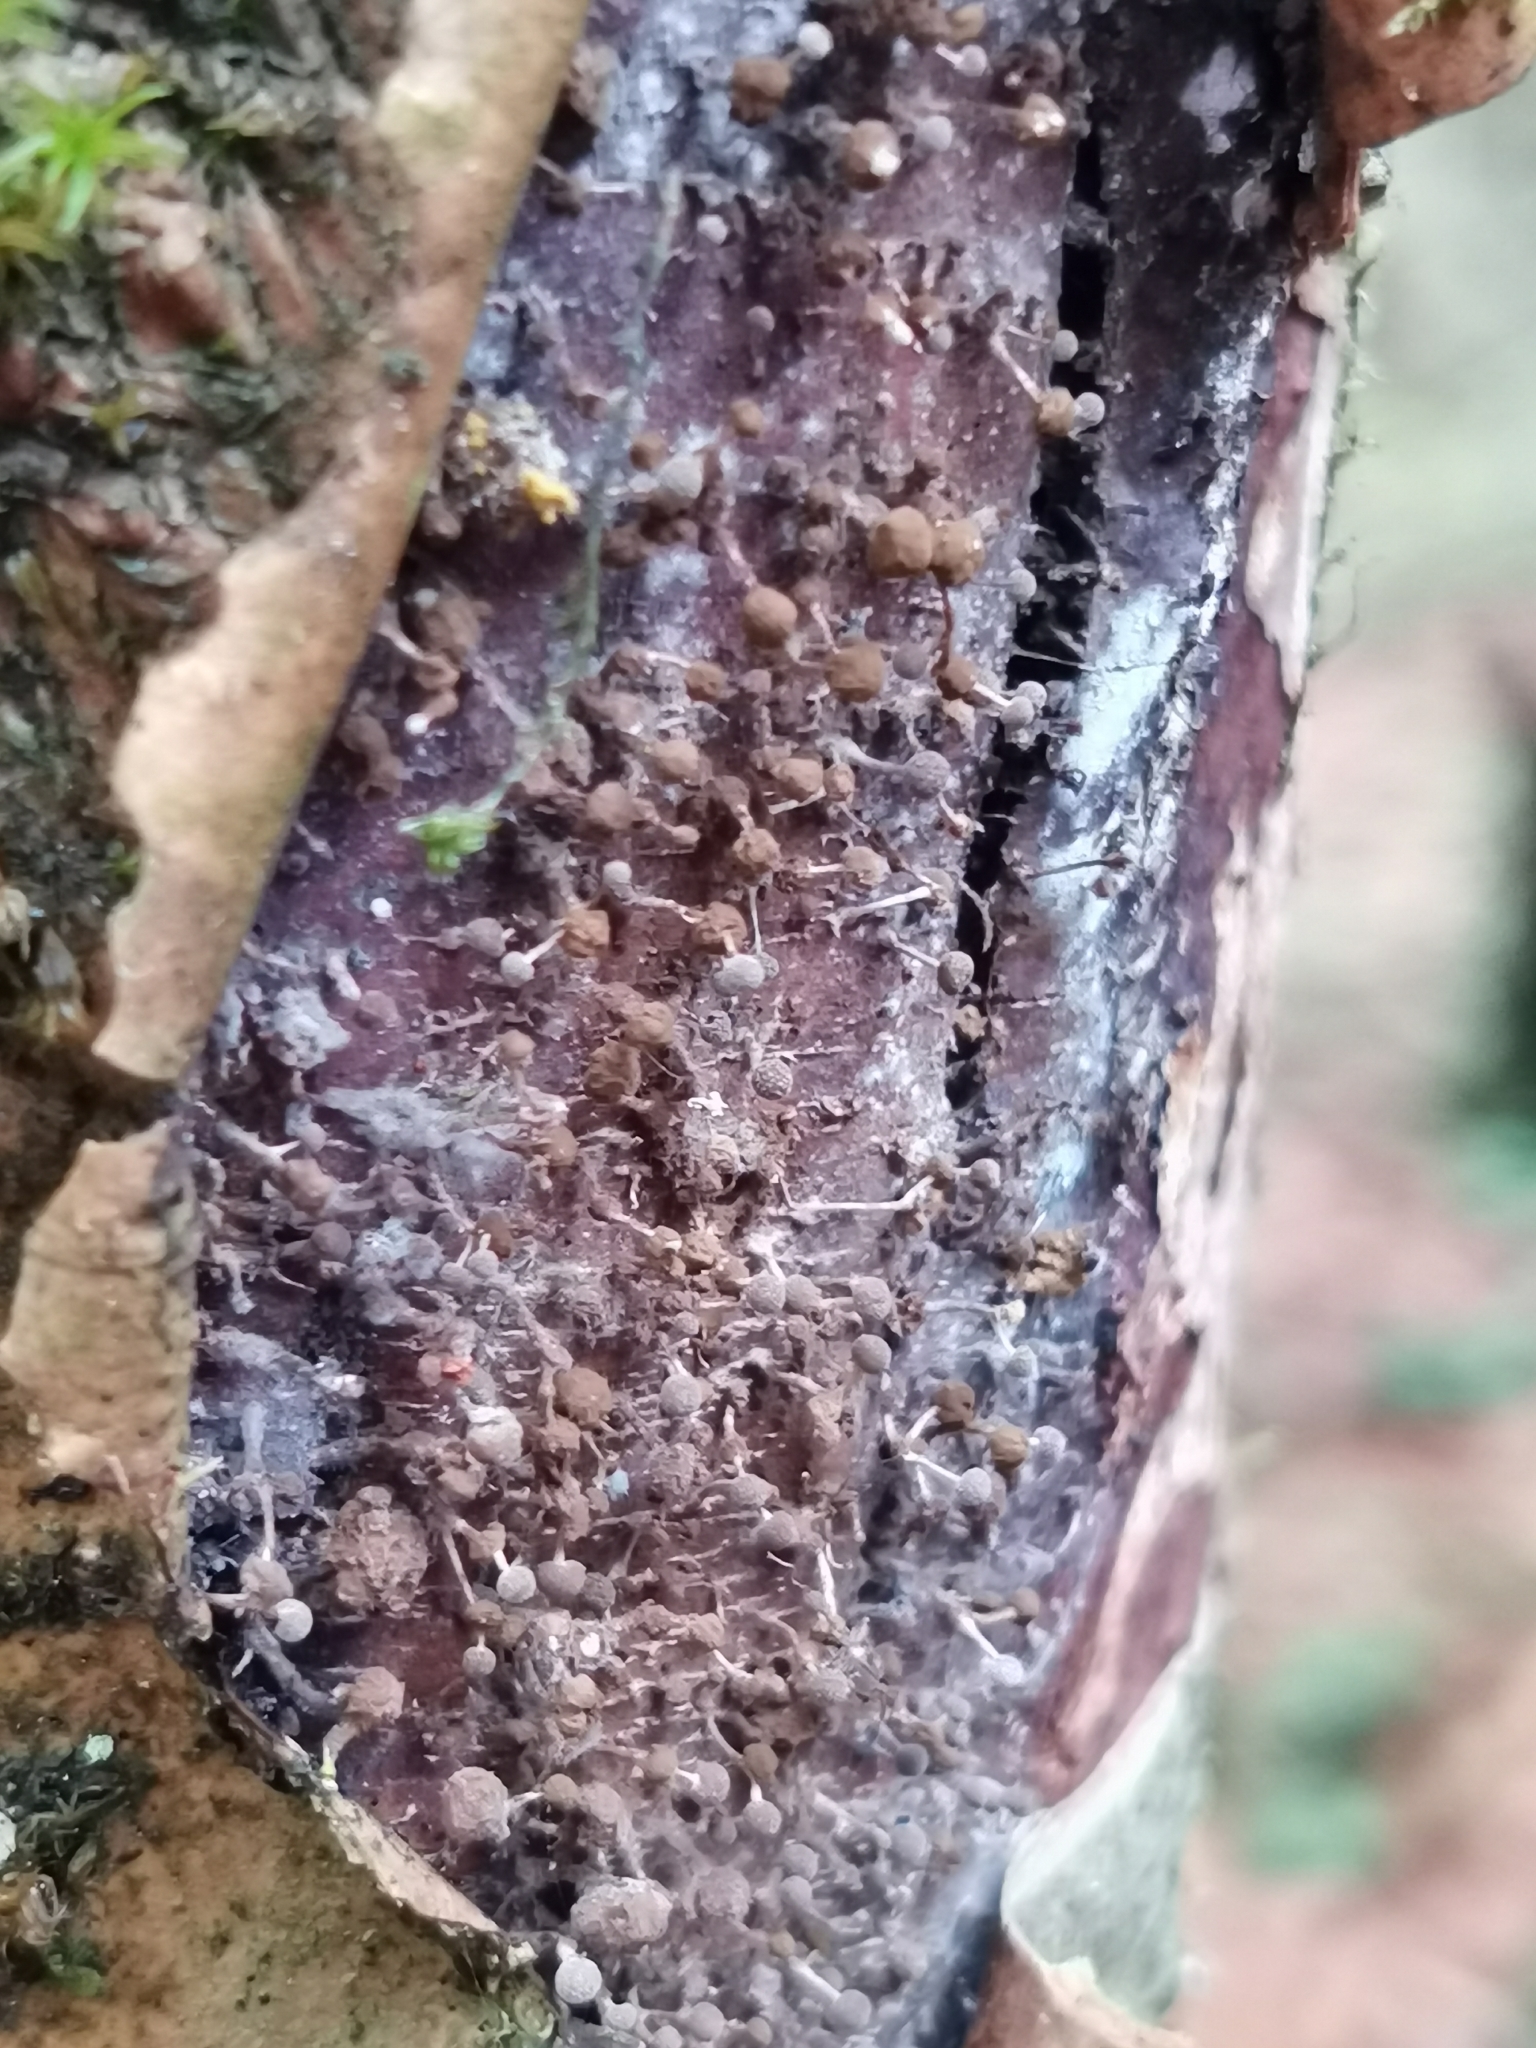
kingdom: Fungi
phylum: Basidiomycota
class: Atractiellomycetes
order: Atractiellales
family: Phleogenaceae
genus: Phleogena
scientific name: Phleogena faginea
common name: Fenugreek stalkball
